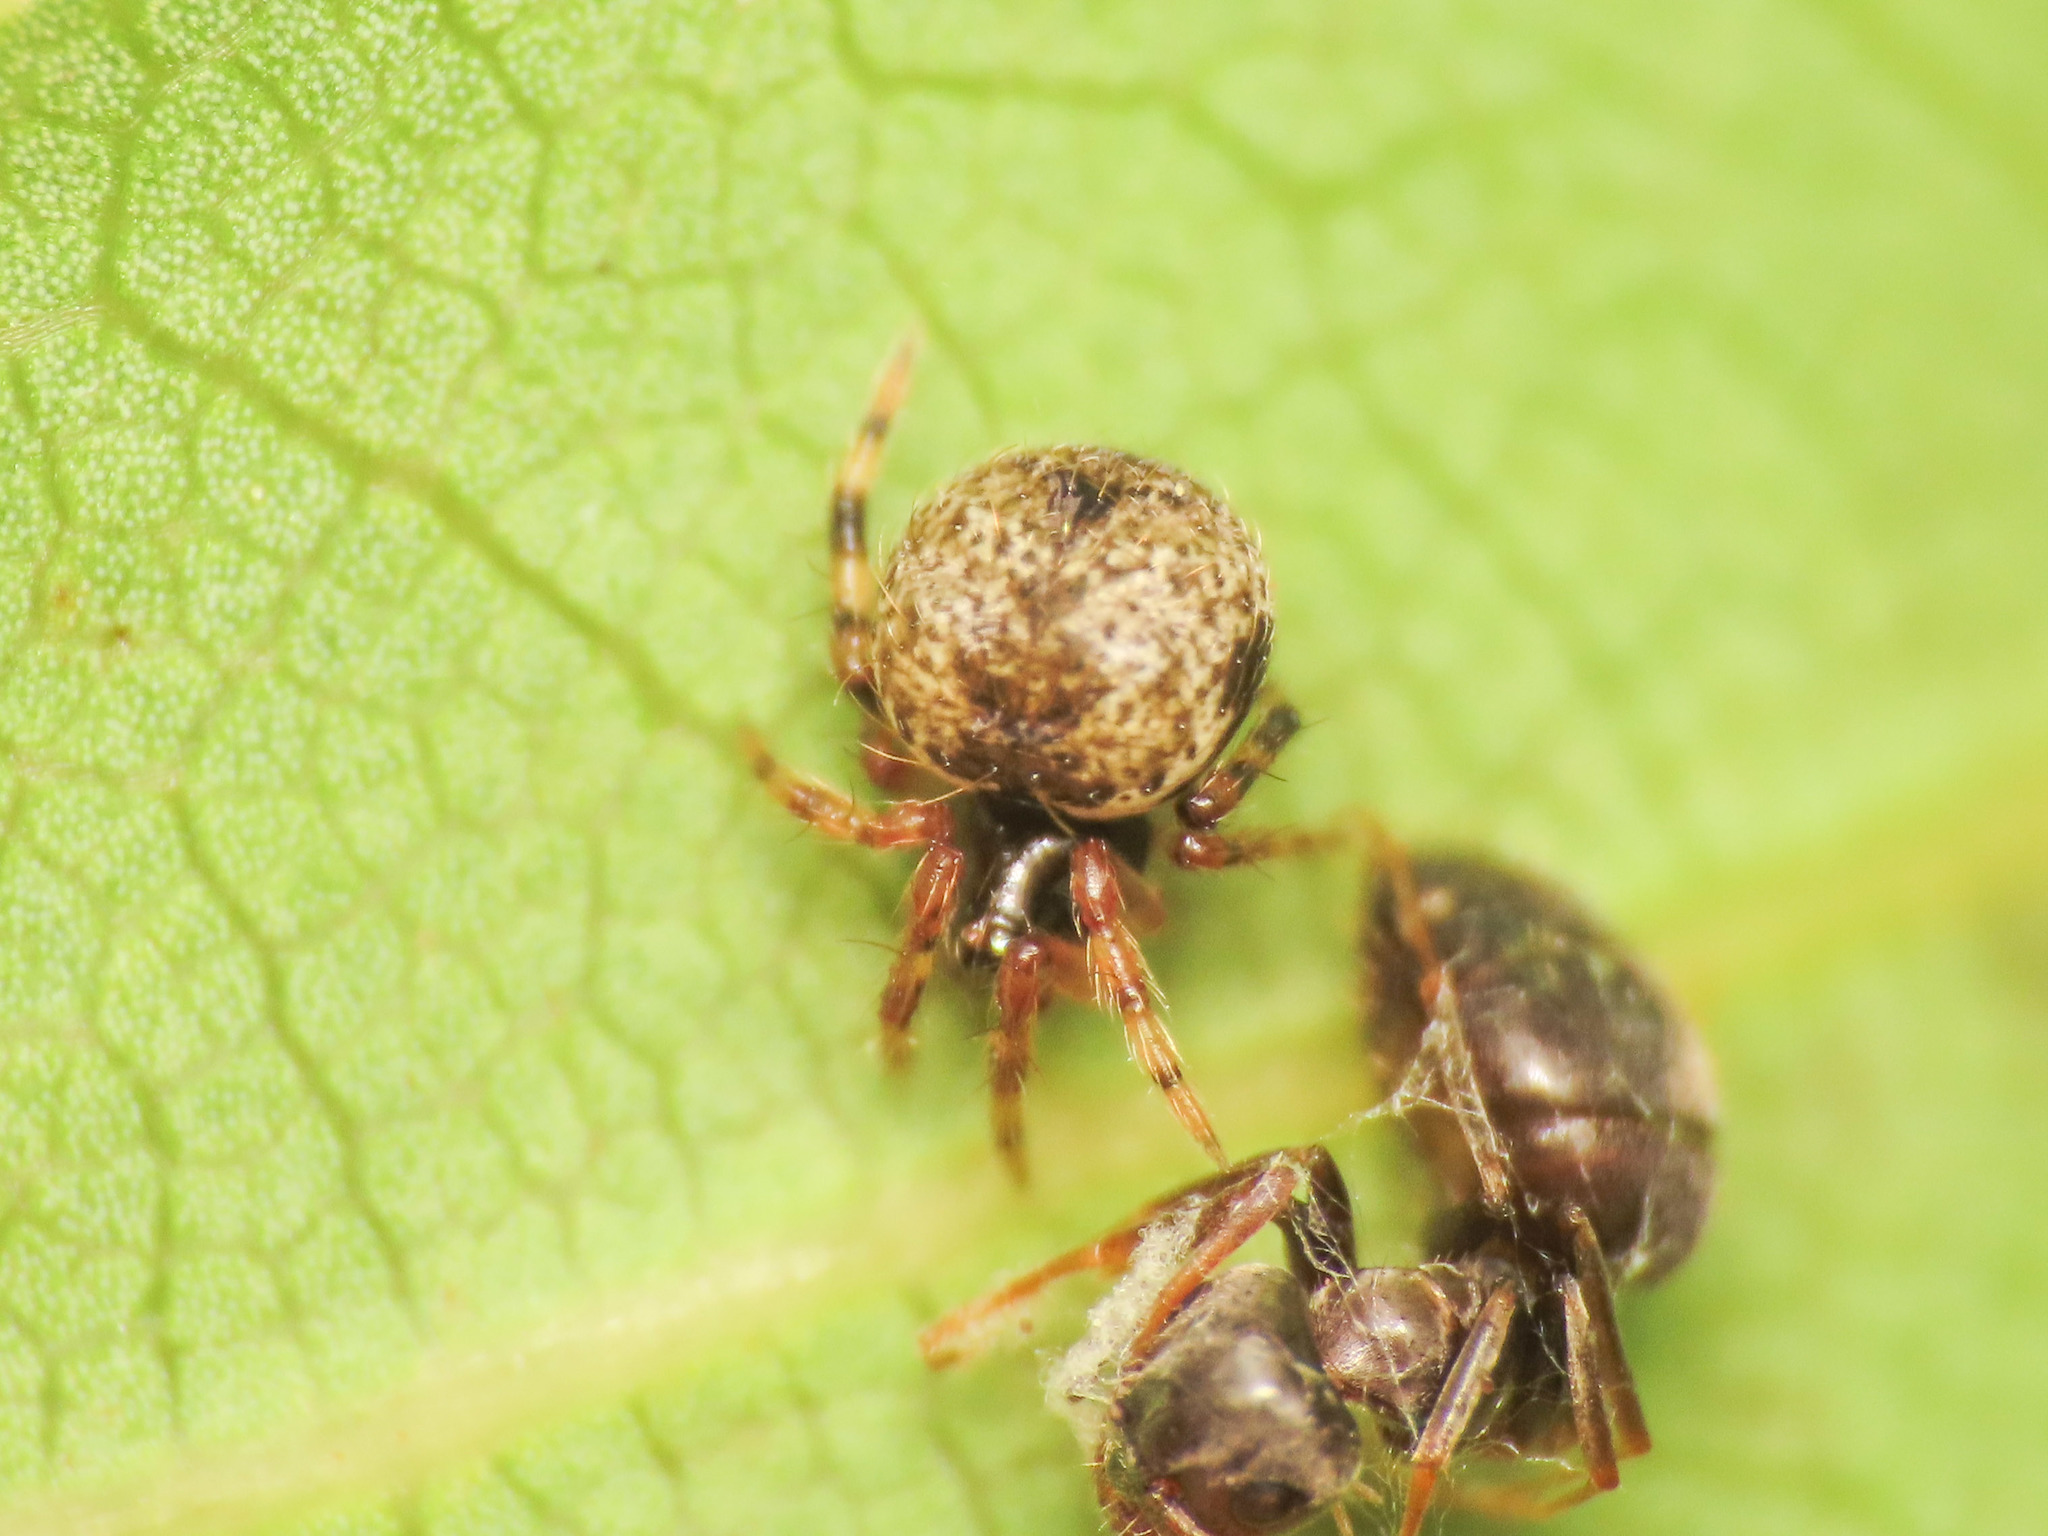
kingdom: Animalia
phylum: Arthropoda
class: Arachnida
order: Araneae
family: Theridiidae
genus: Dipoena
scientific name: Dipoena melanogaster
